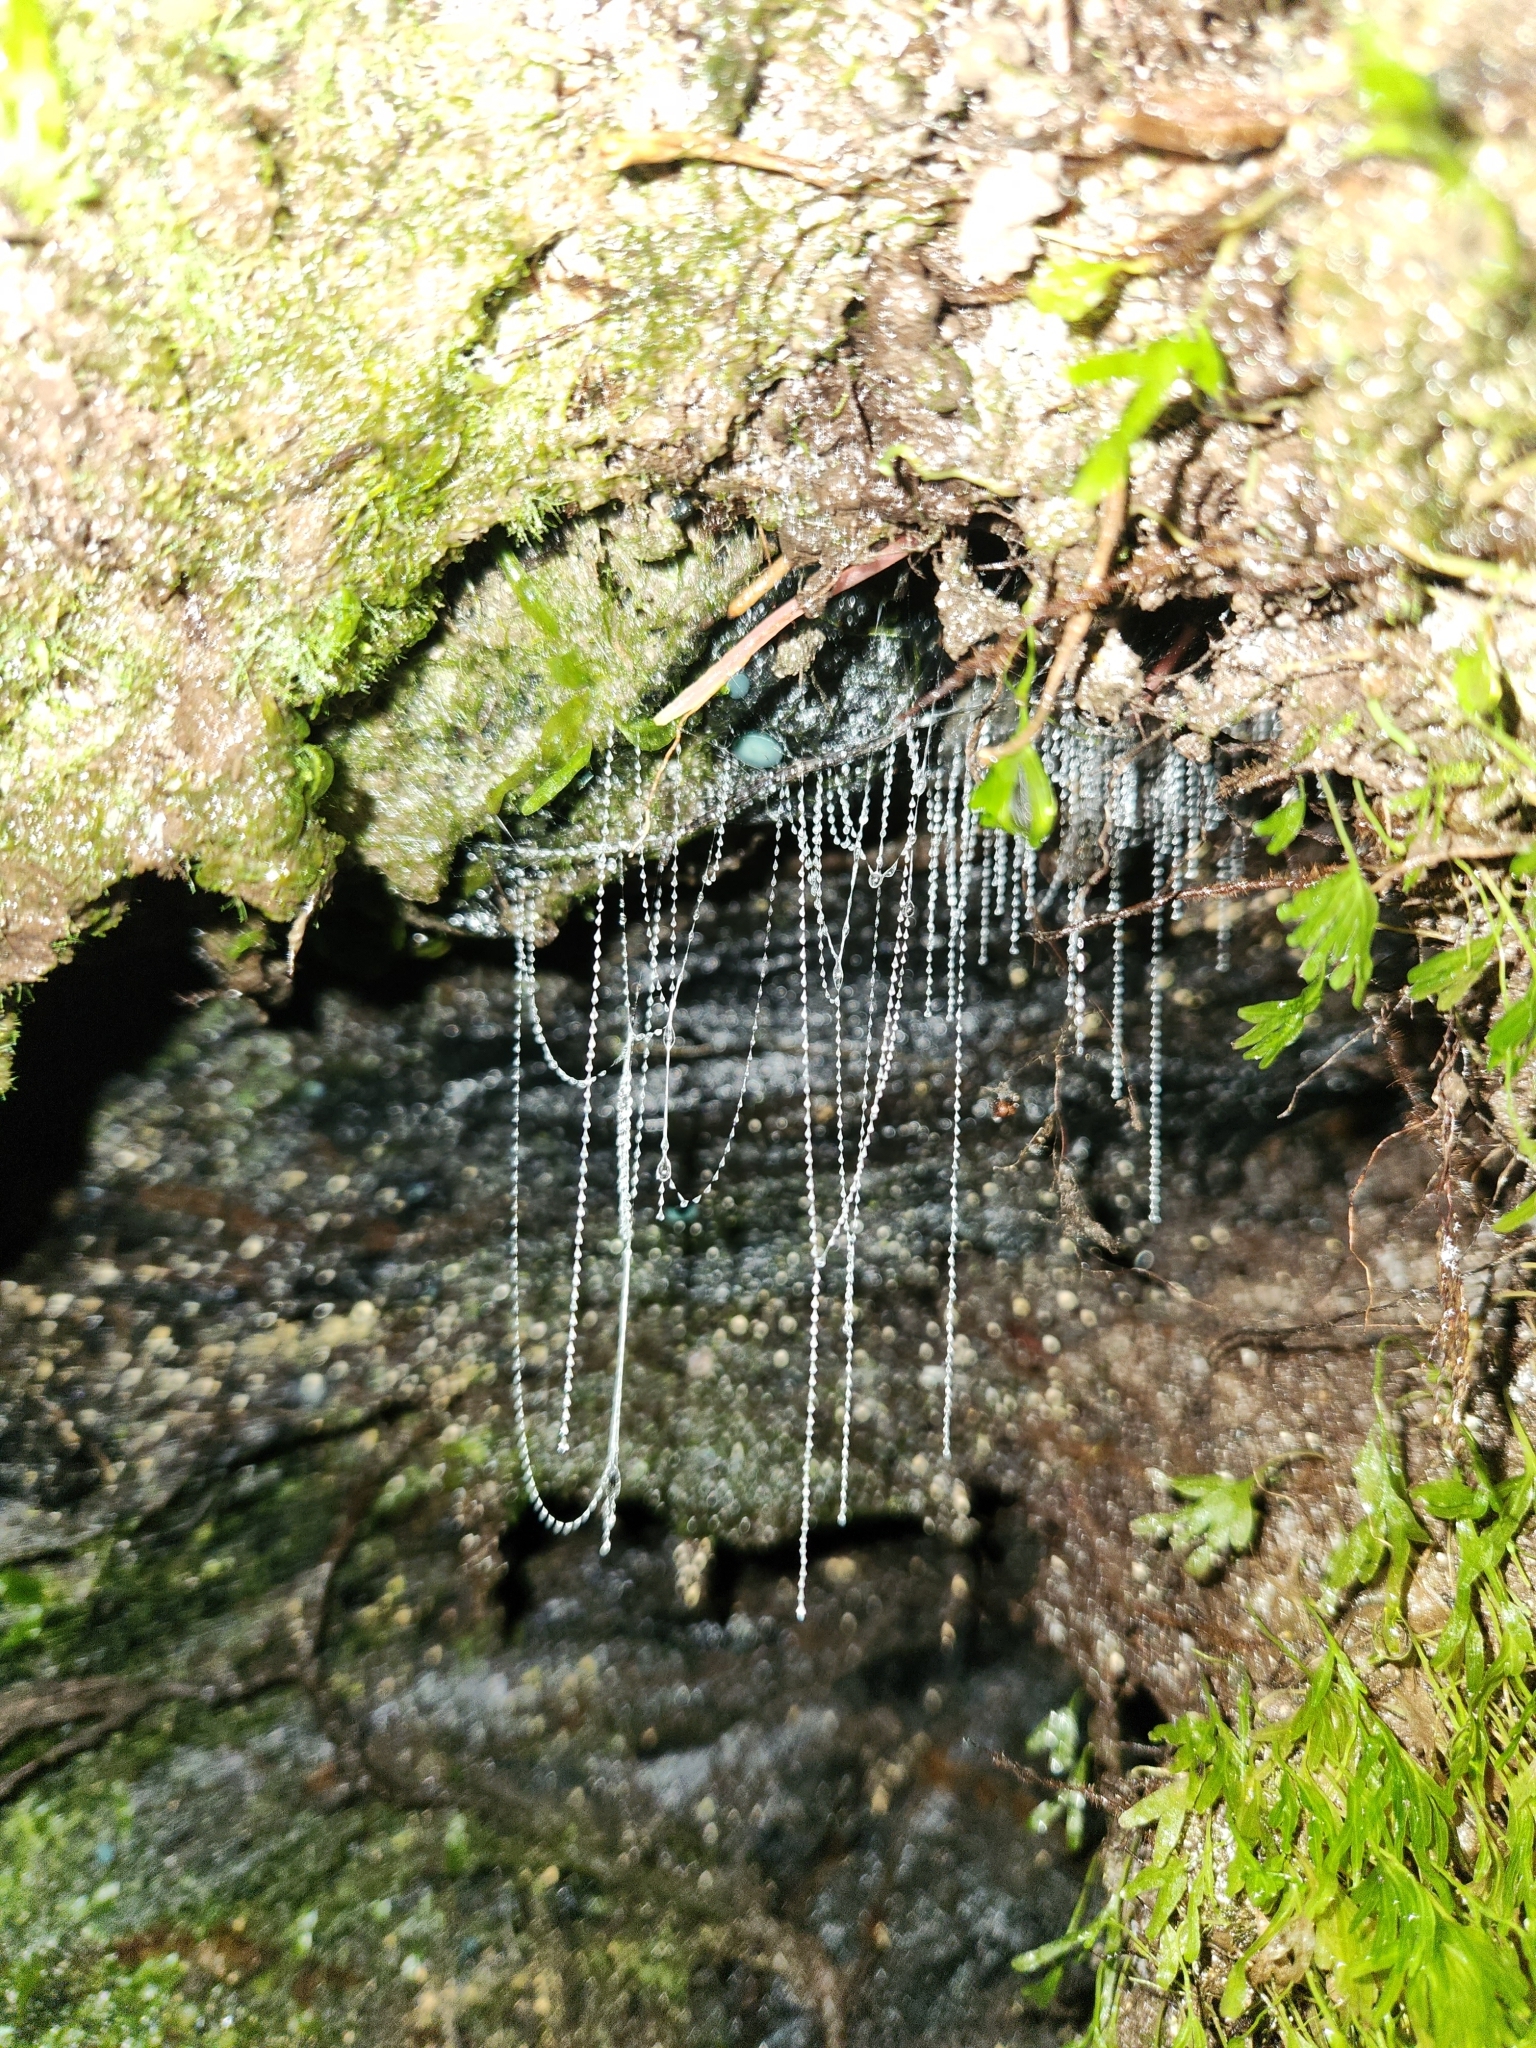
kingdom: Animalia
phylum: Arthropoda
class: Insecta
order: Diptera
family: Keroplatidae
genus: Arachnocampa
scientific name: Arachnocampa luminosa
